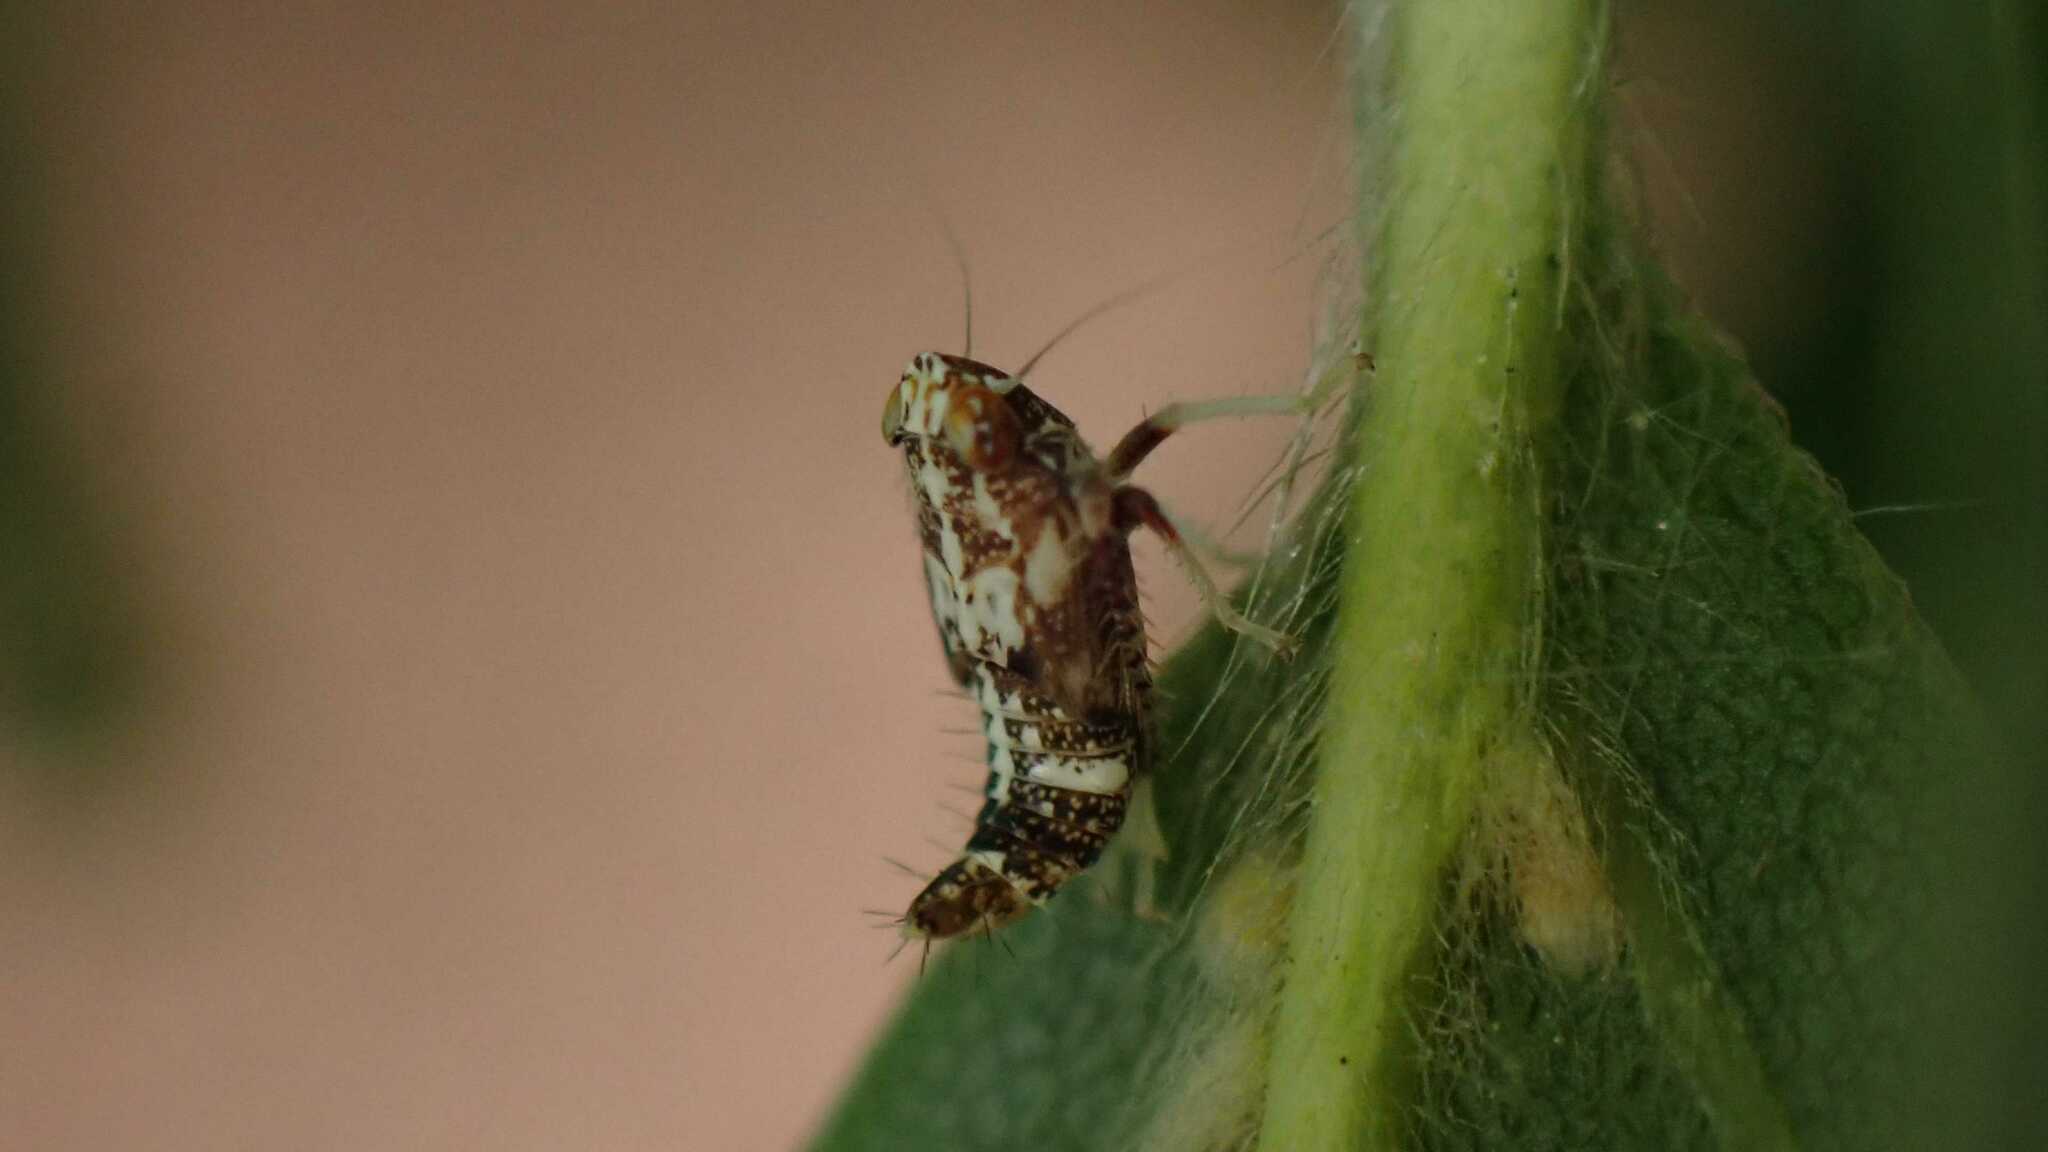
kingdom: Animalia
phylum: Arthropoda
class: Insecta
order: Hemiptera
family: Cicadellidae
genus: Orientus
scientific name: Orientus ishidae
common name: Japanese leafhopper
